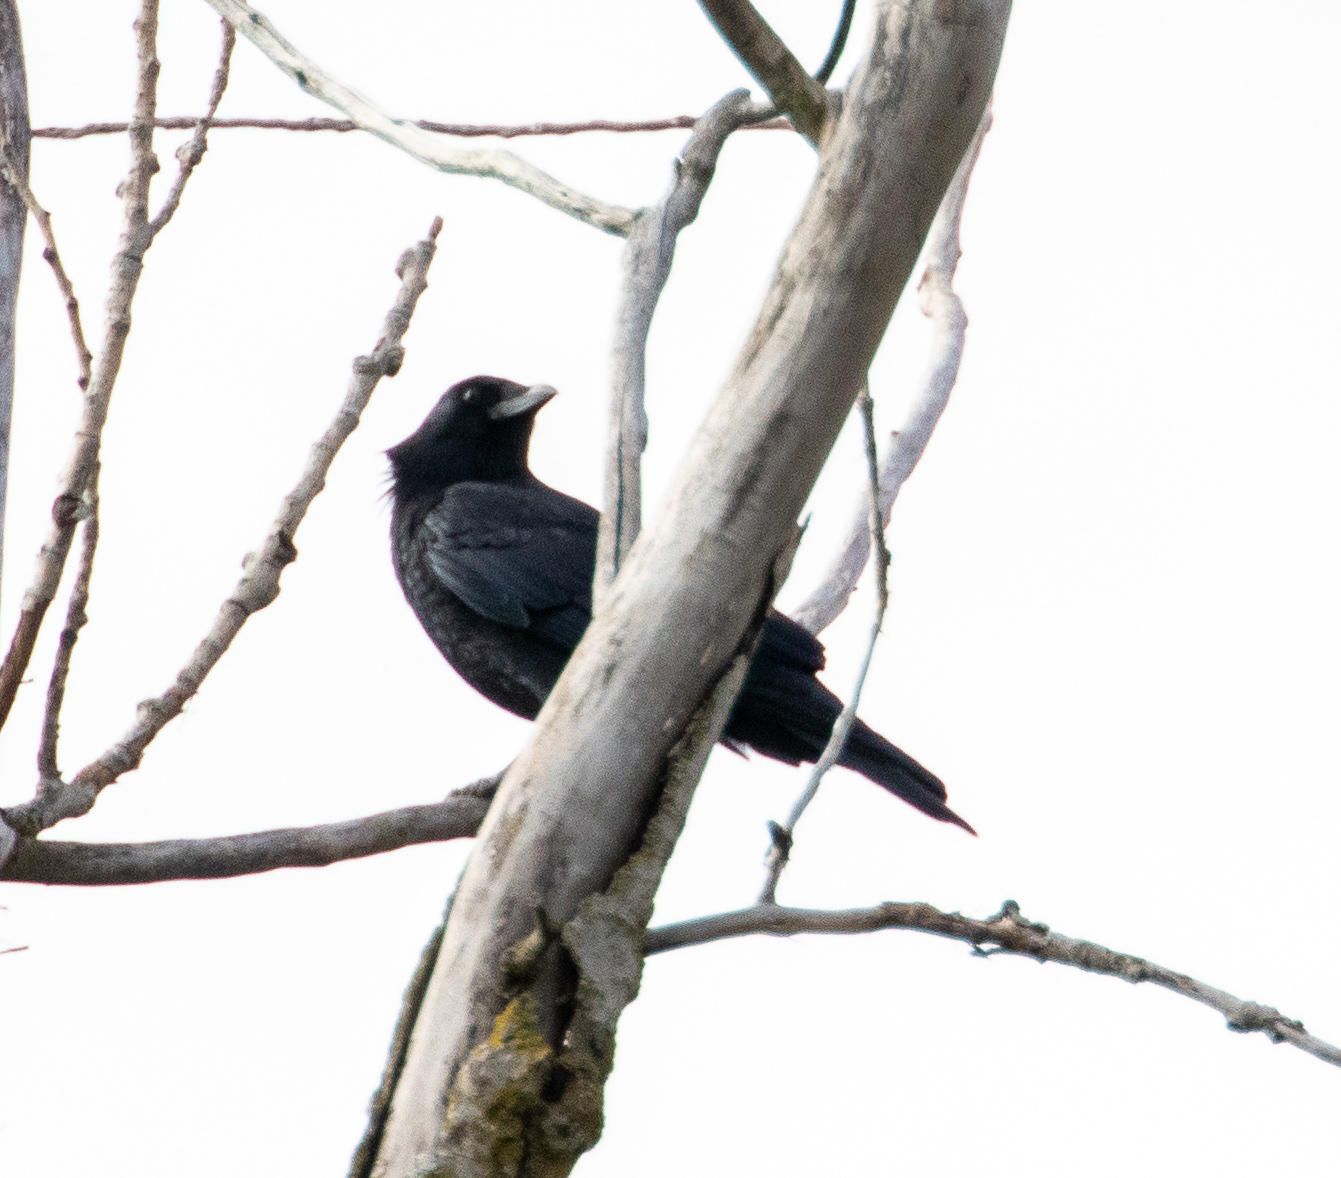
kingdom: Animalia
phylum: Chordata
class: Aves
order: Passeriformes
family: Corvidae
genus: Corvus
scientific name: Corvus brachyrhynchos
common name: American crow
